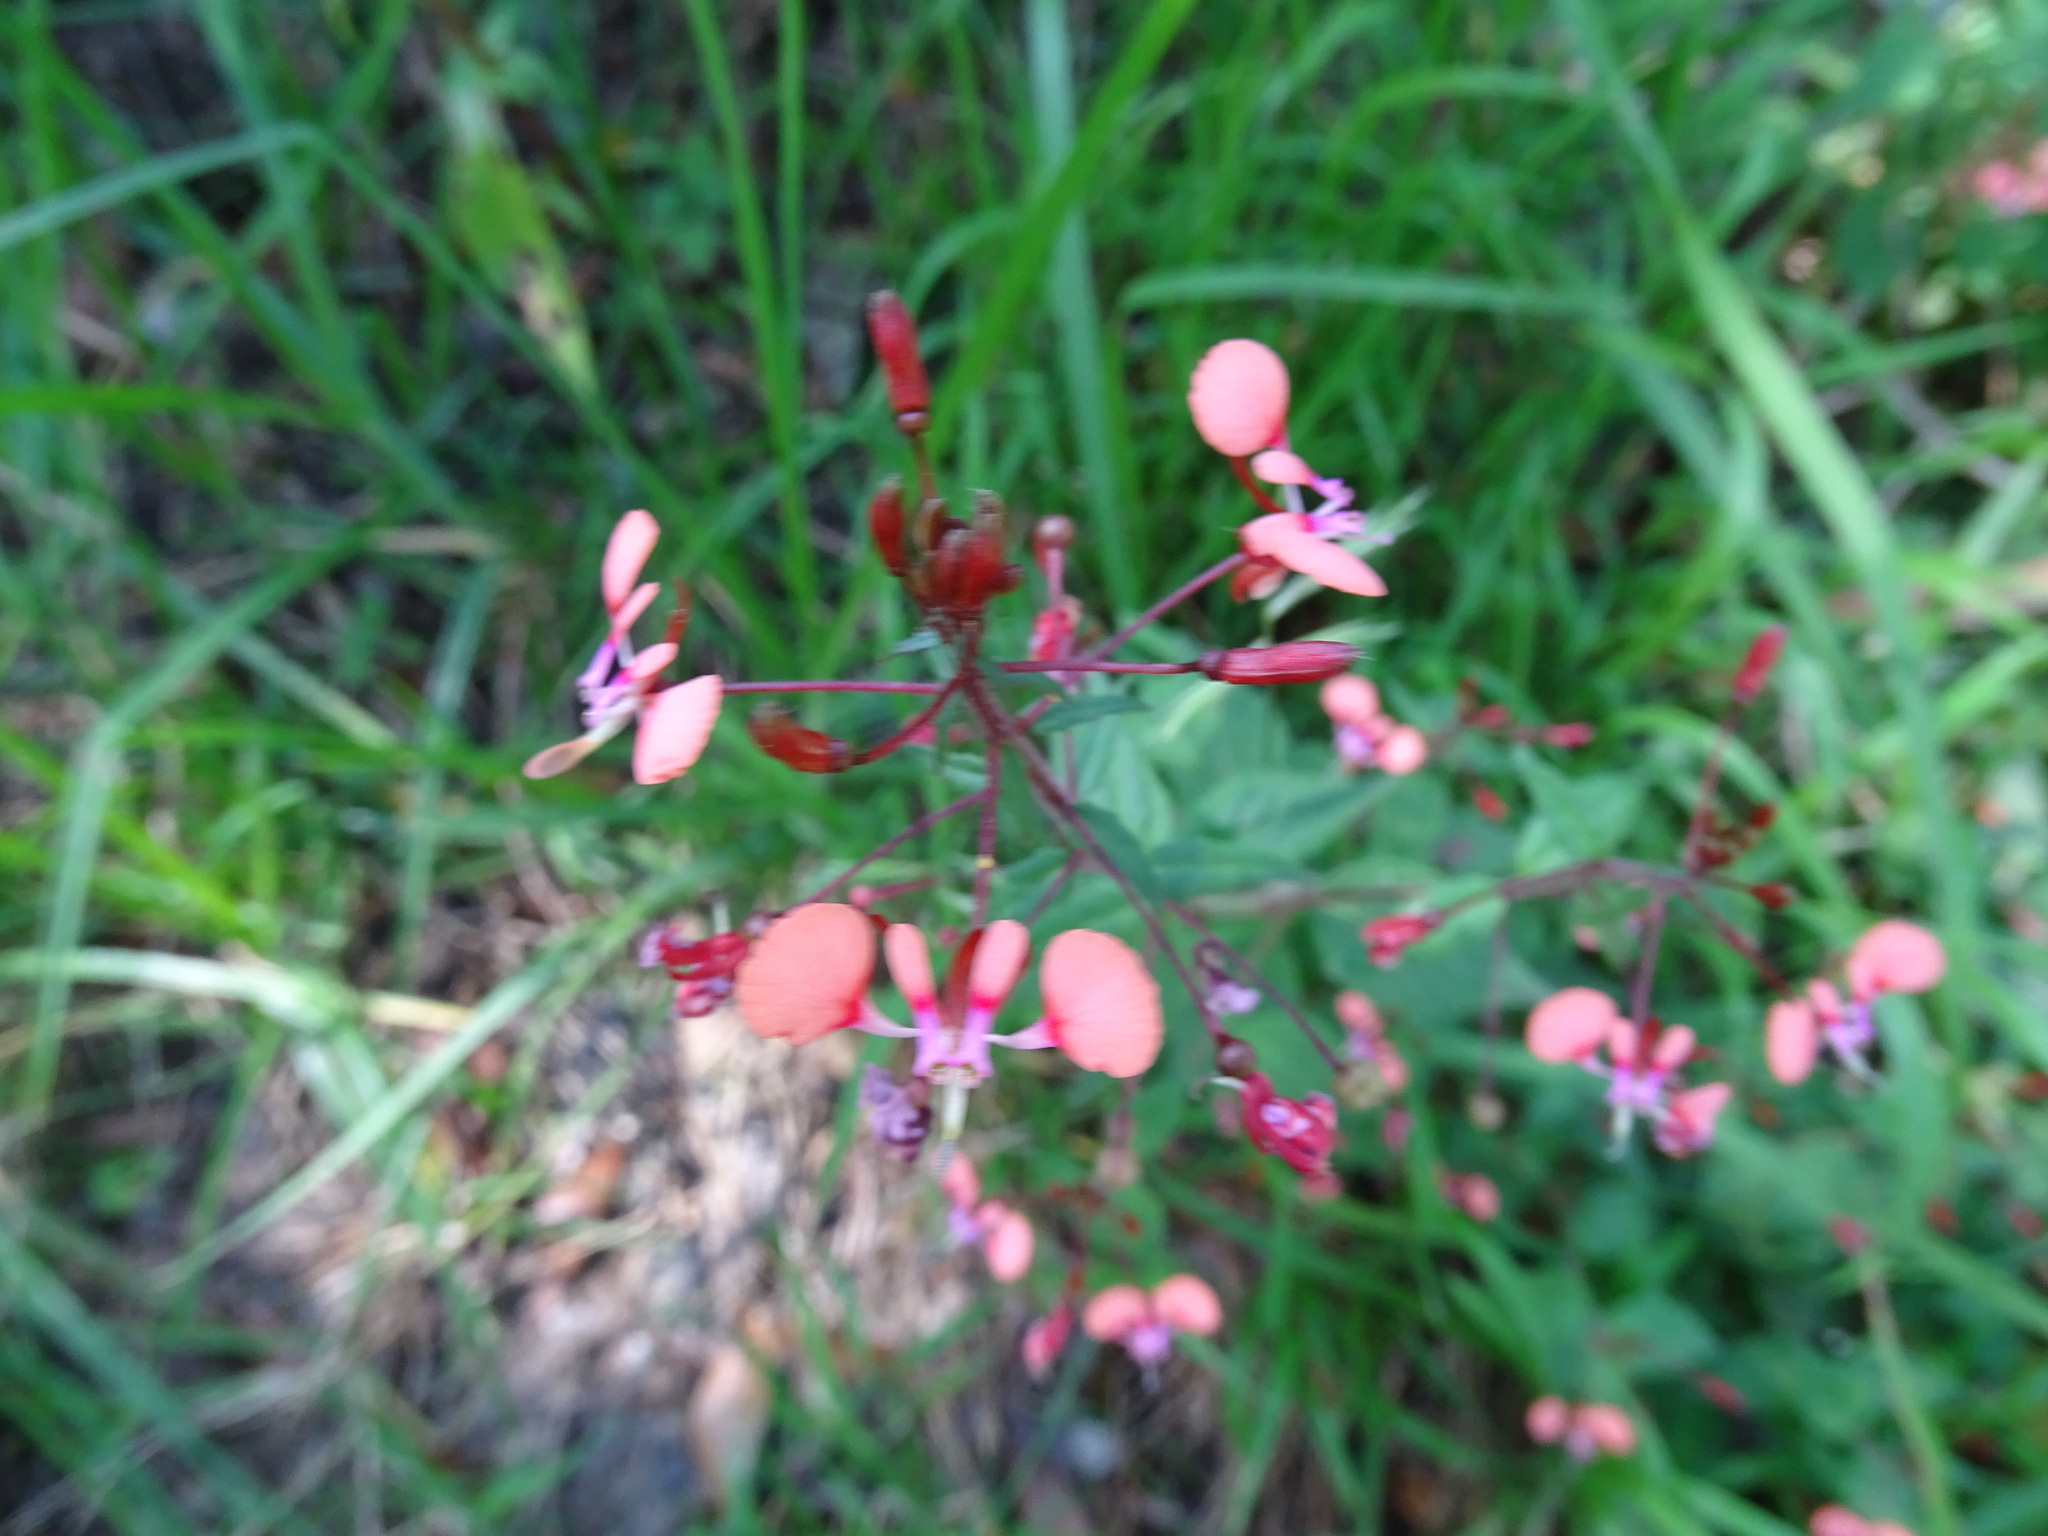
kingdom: Plantae
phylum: Tracheophyta
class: Magnoliopsida
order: Myrtales
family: Onagraceae
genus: Lopezia
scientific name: Lopezia racemosa
